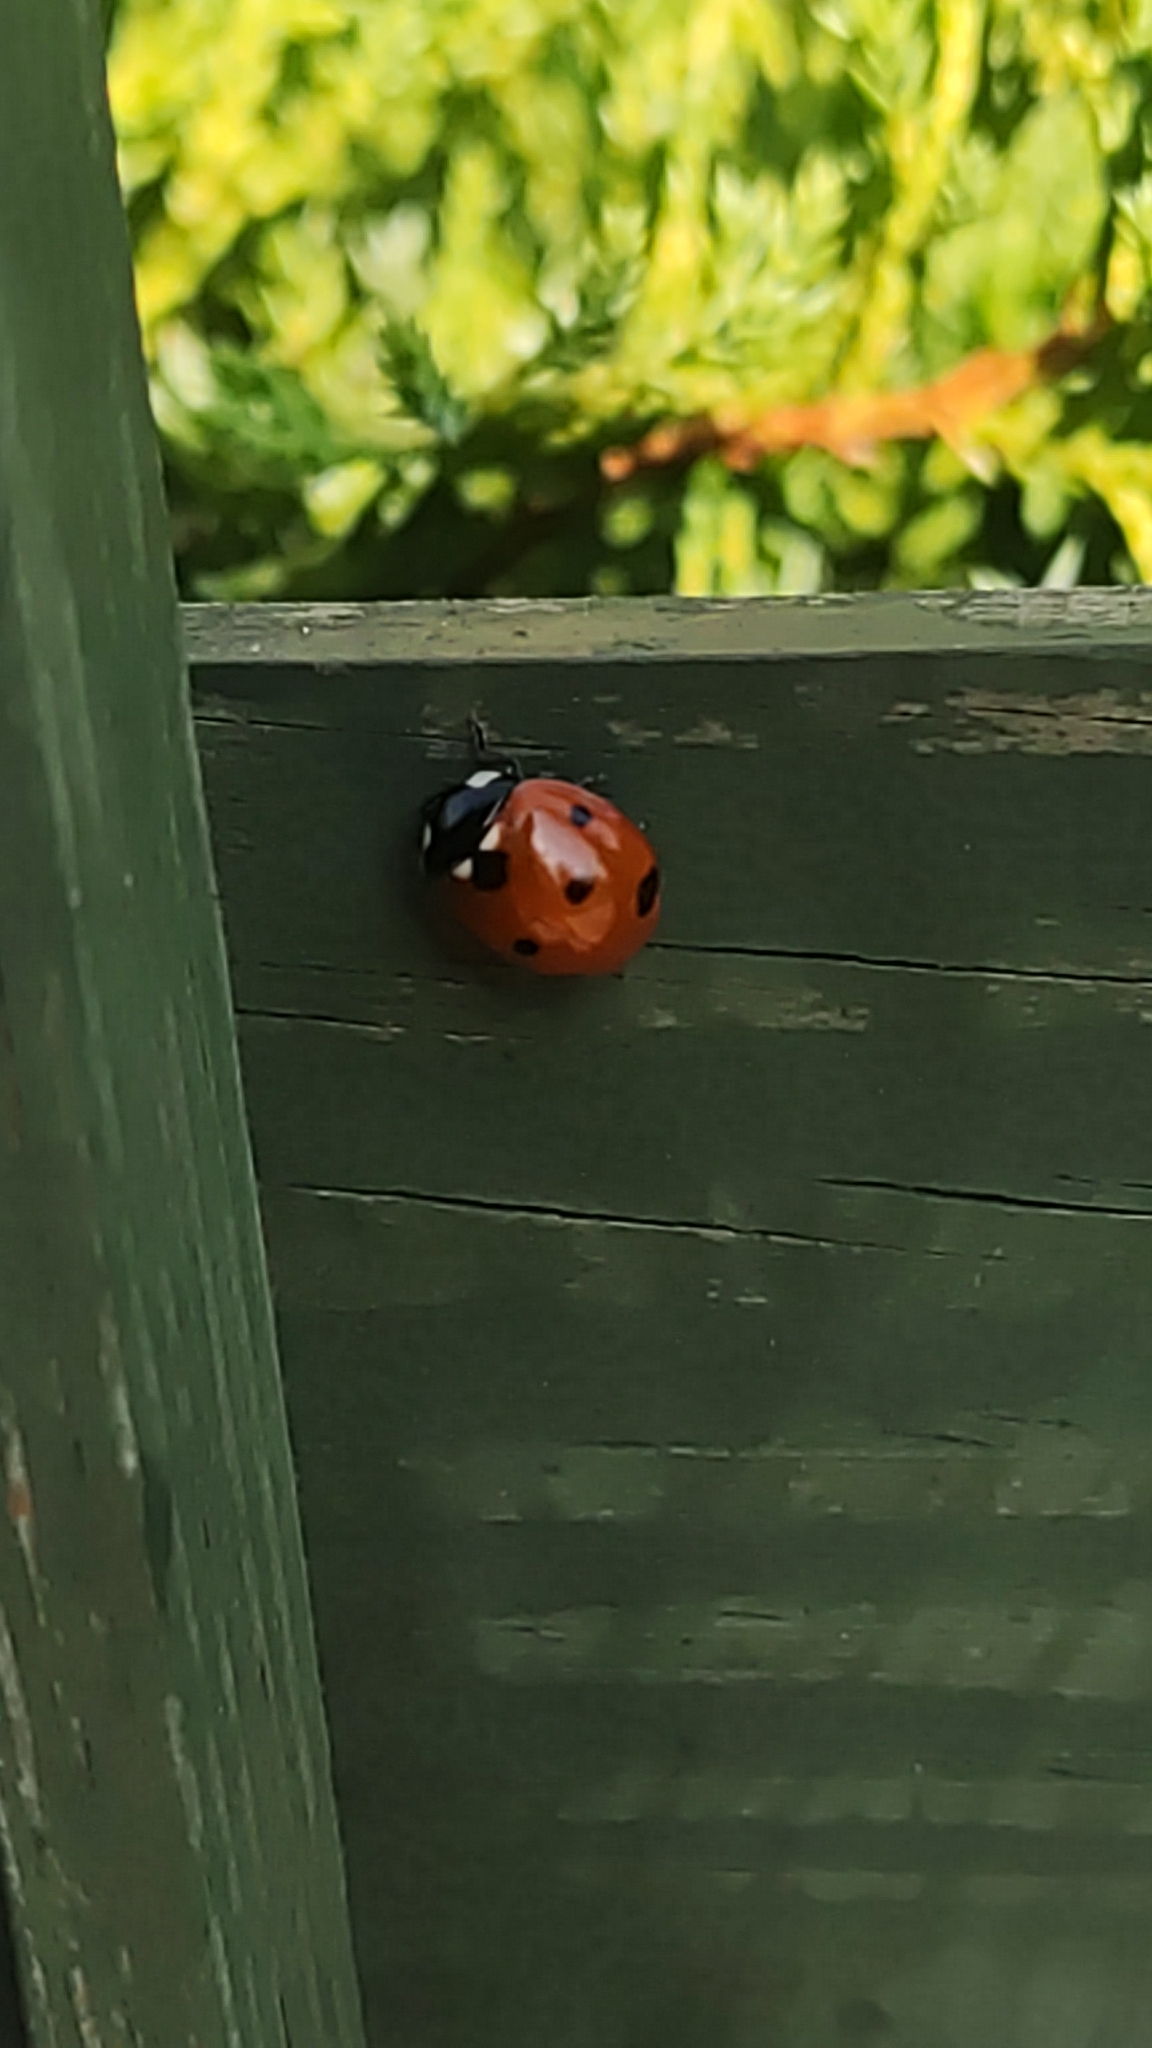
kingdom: Animalia
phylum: Arthropoda
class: Insecta
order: Coleoptera
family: Coccinellidae
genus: Coccinella
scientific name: Coccinella septempunctata
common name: Sevenspotted lady beetle
